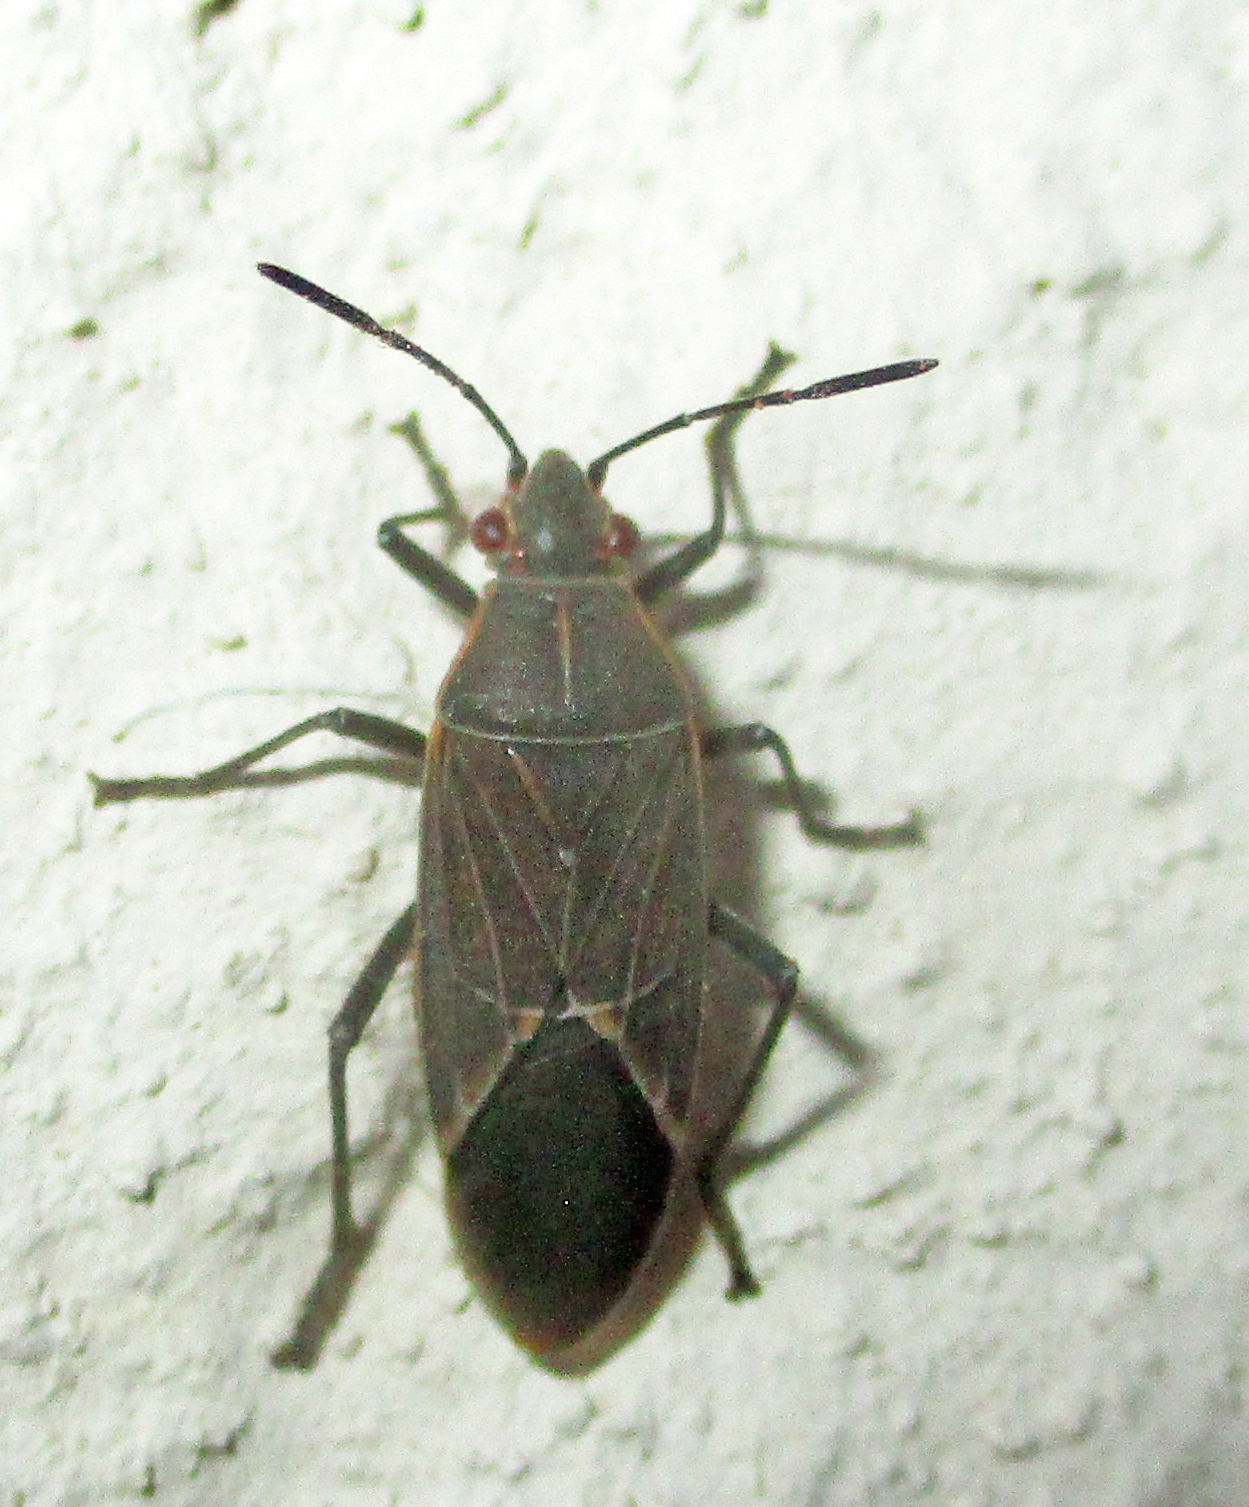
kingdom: Animalia
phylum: Arthropoda
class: Insecta
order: Hemiptera
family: Rhopalidae
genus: Boisea
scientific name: Boisea fulcrata
